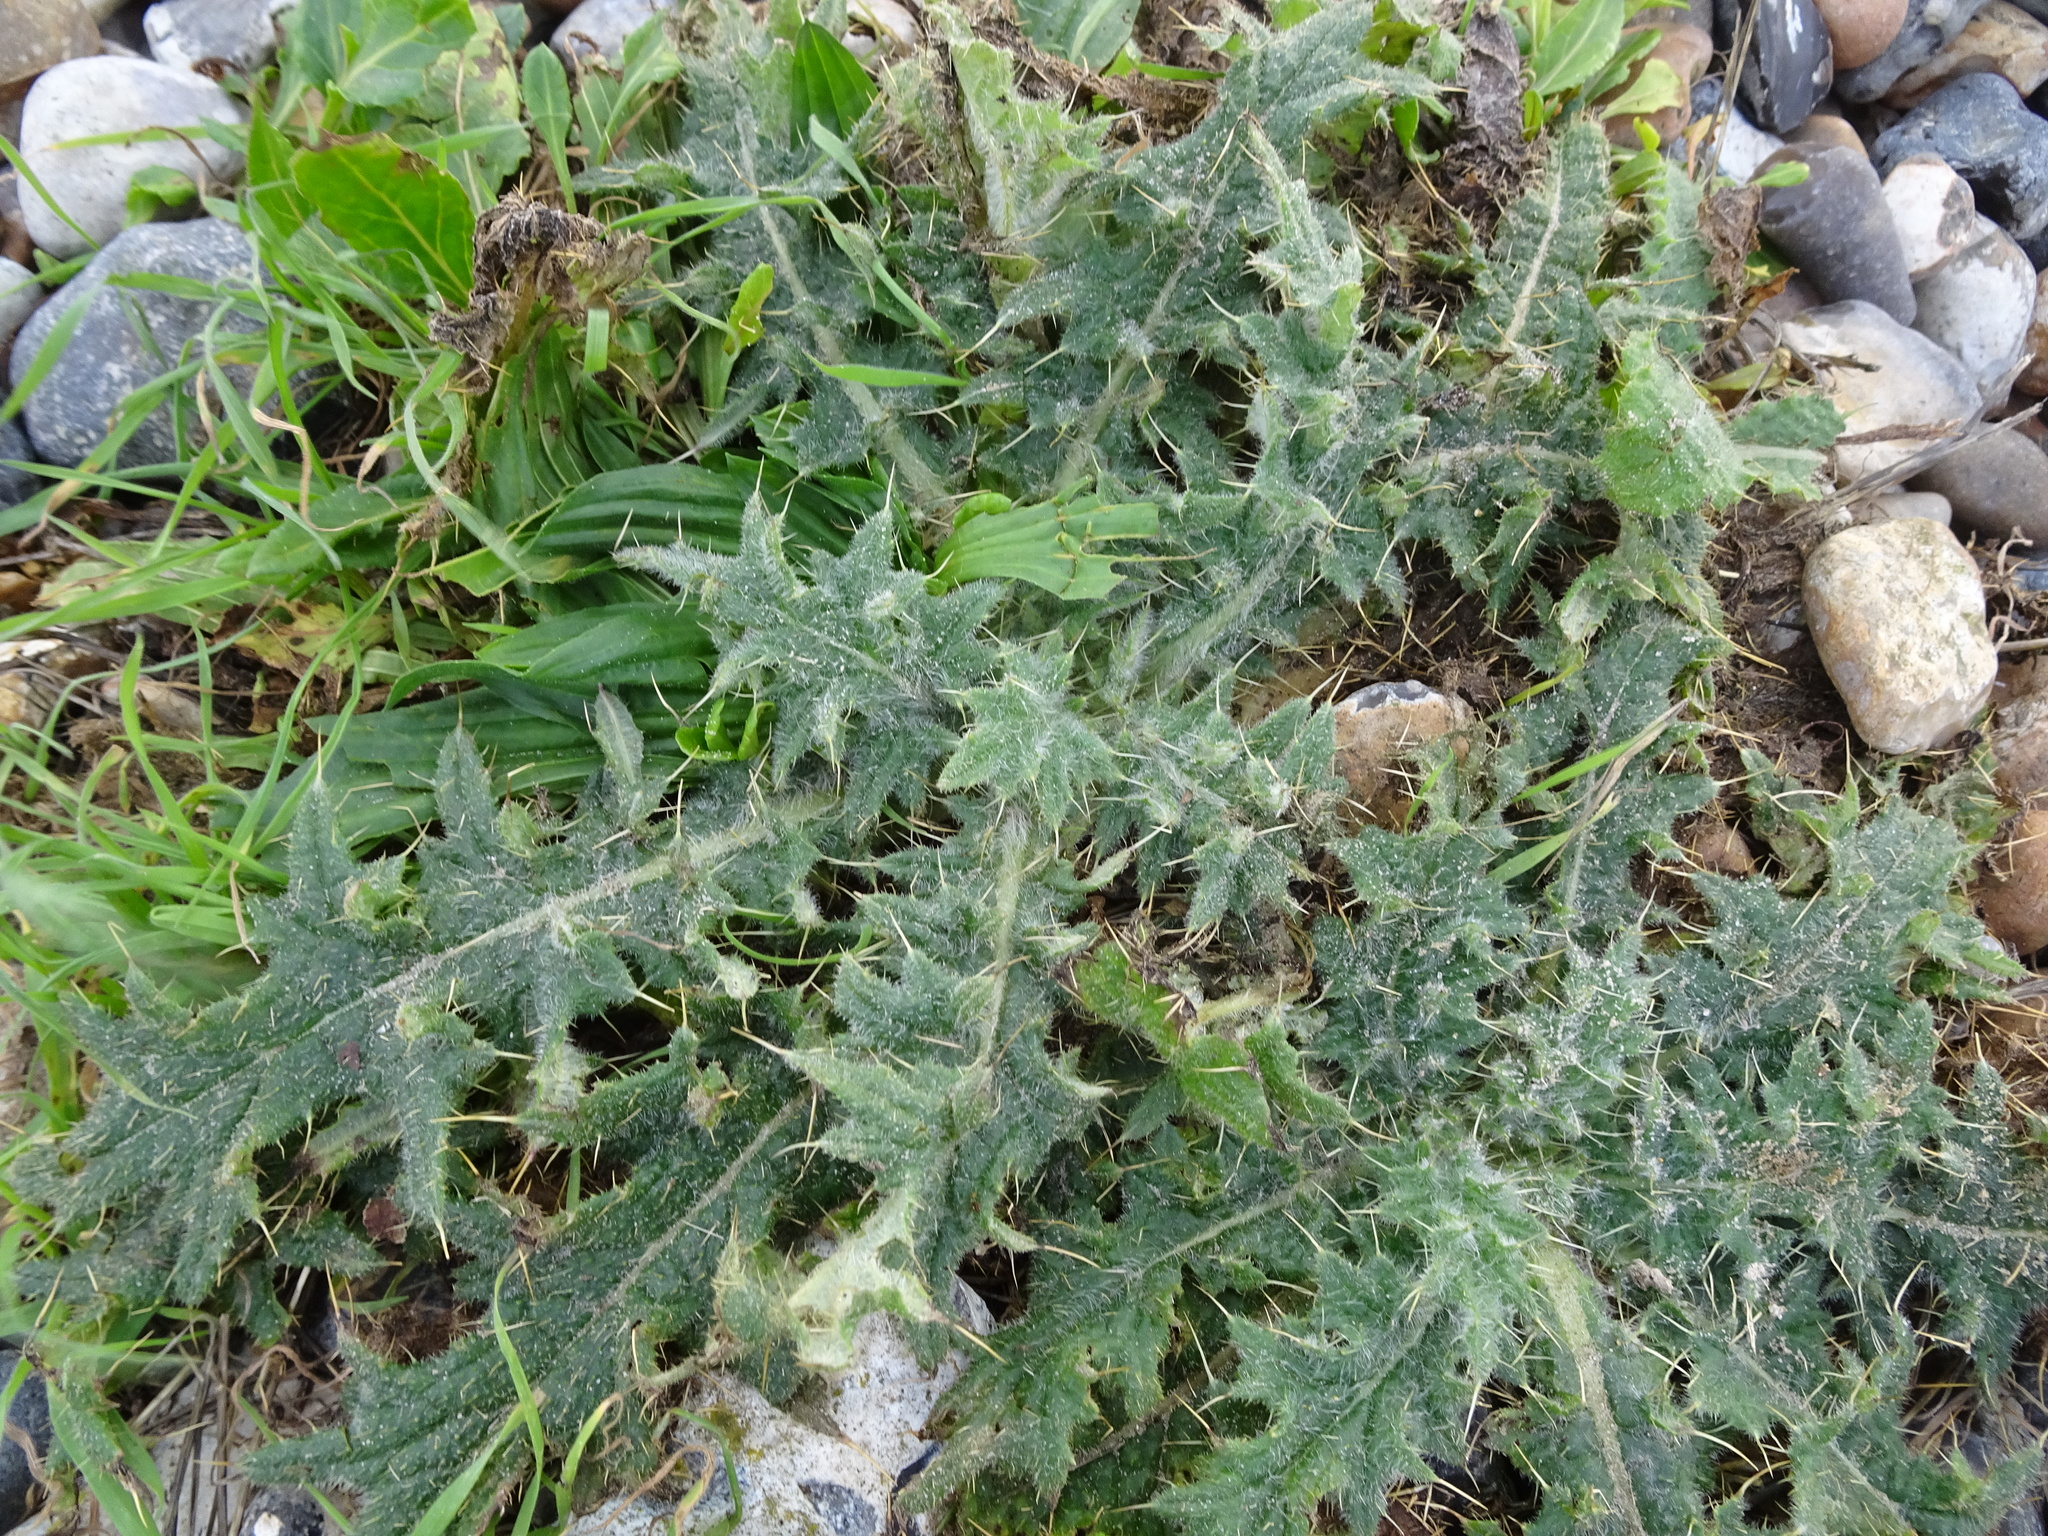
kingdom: Plantae
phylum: Tracheophyta
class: Magnoliopsida
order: Asterales
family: Asteraceae
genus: Cirsium
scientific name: Cirsium vulgare
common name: Bull thistle
